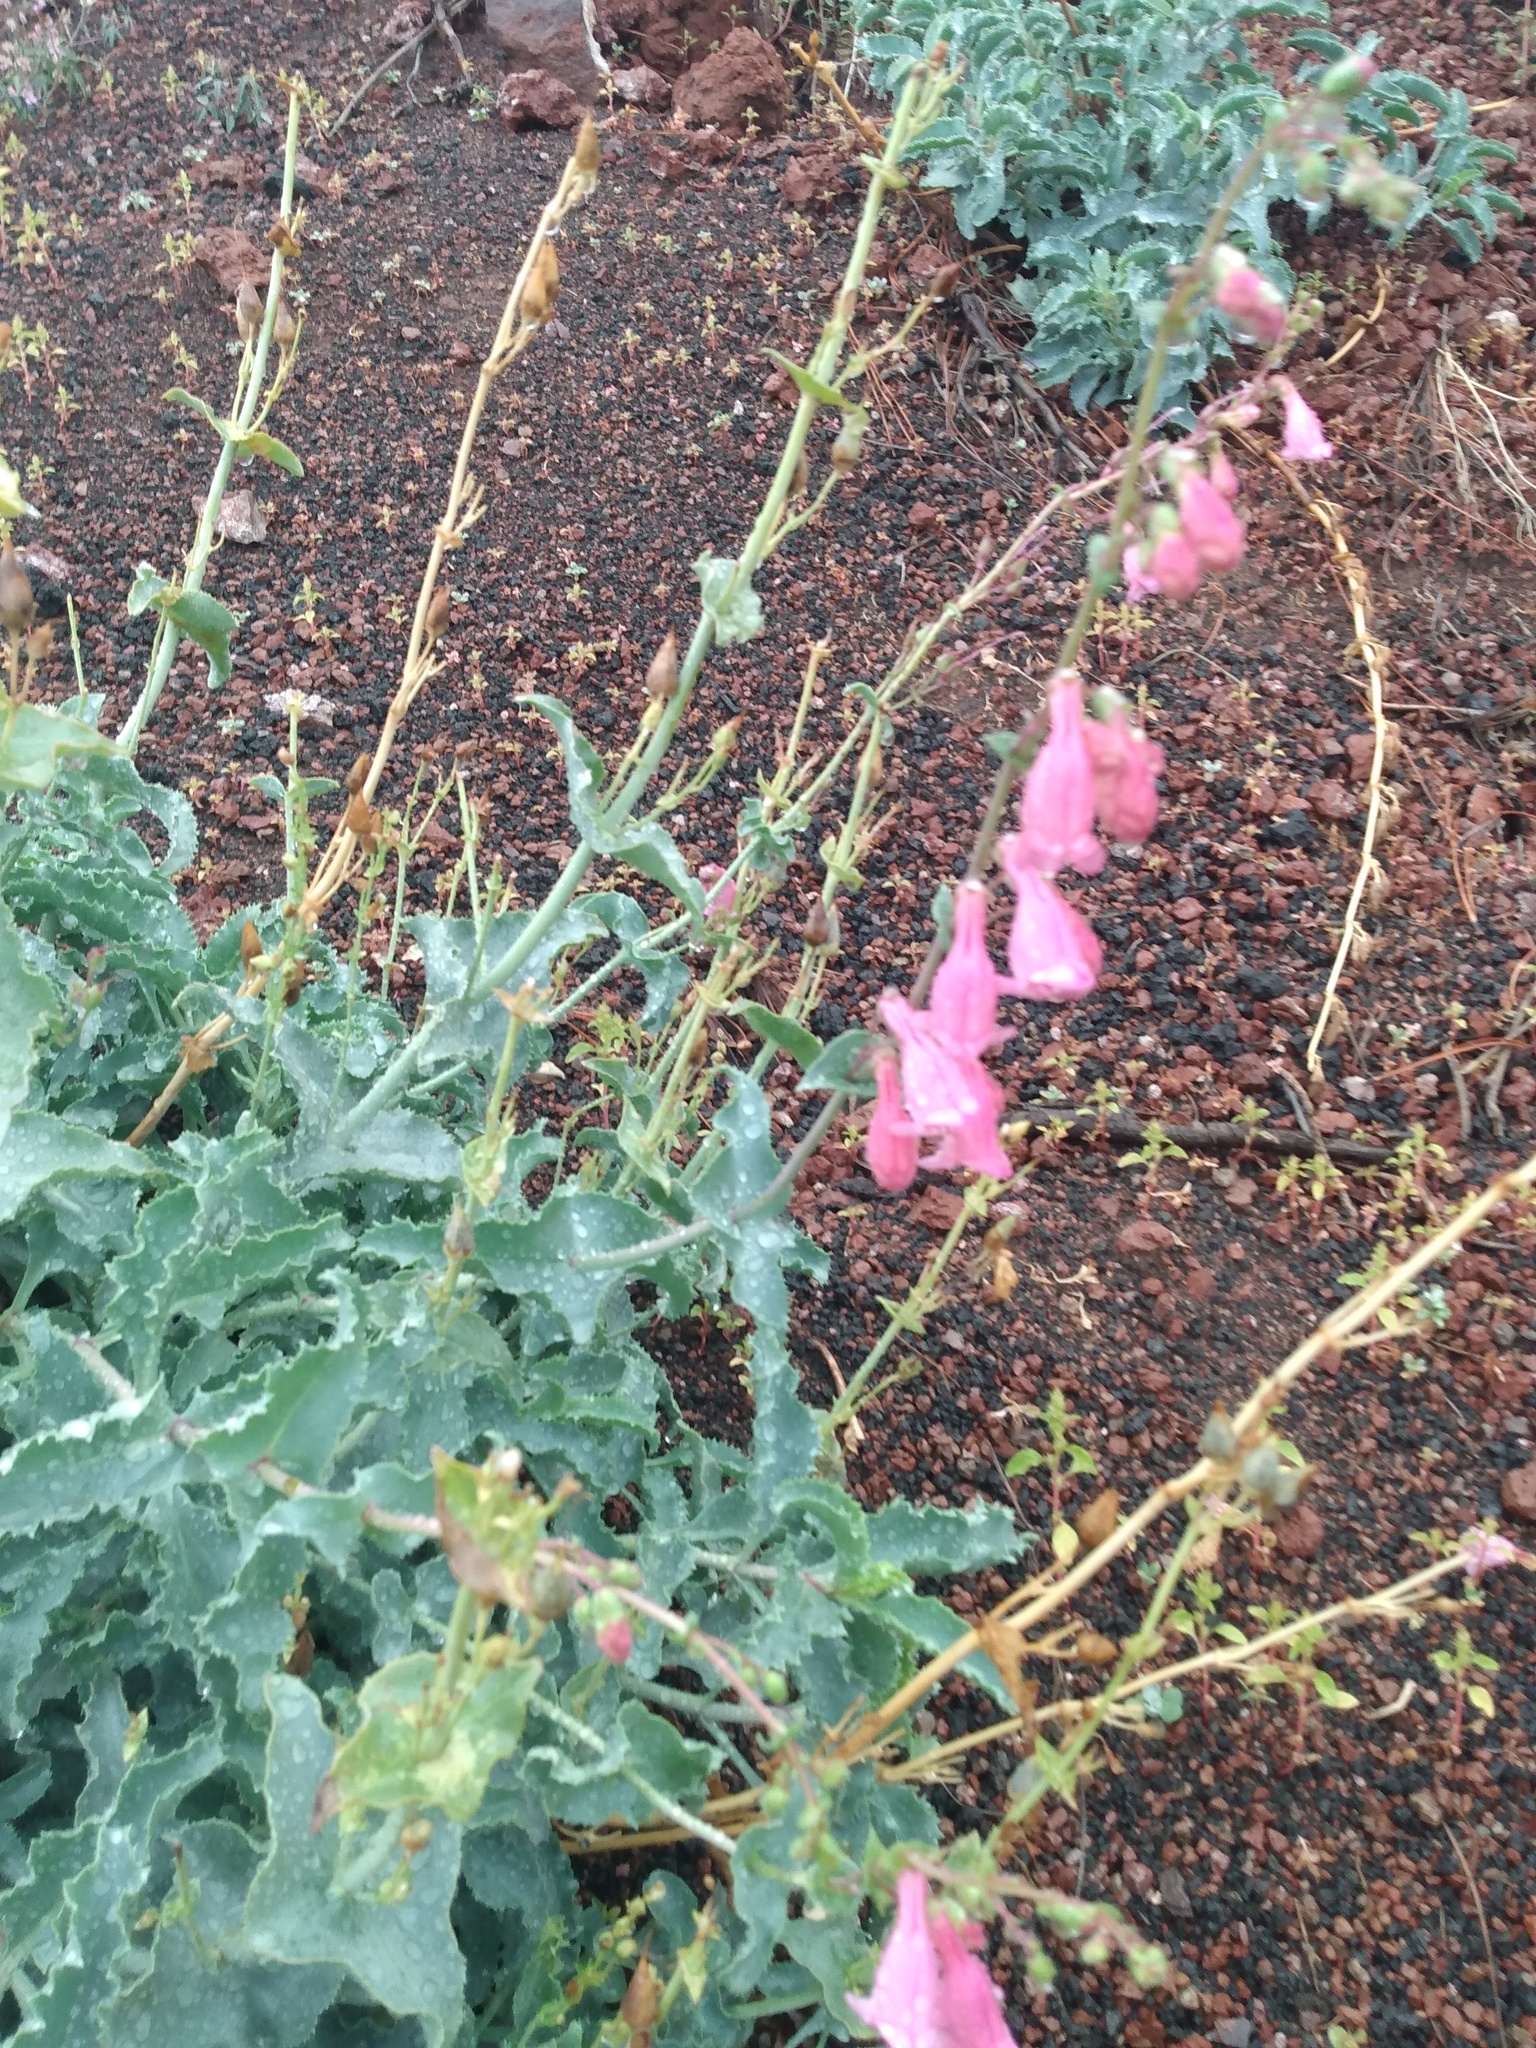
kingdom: Plantae
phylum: Tracheophyta
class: Magnoliopsida
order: Lamiales
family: Plantaginaceae
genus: Penstemon
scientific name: Penstemon clutei
